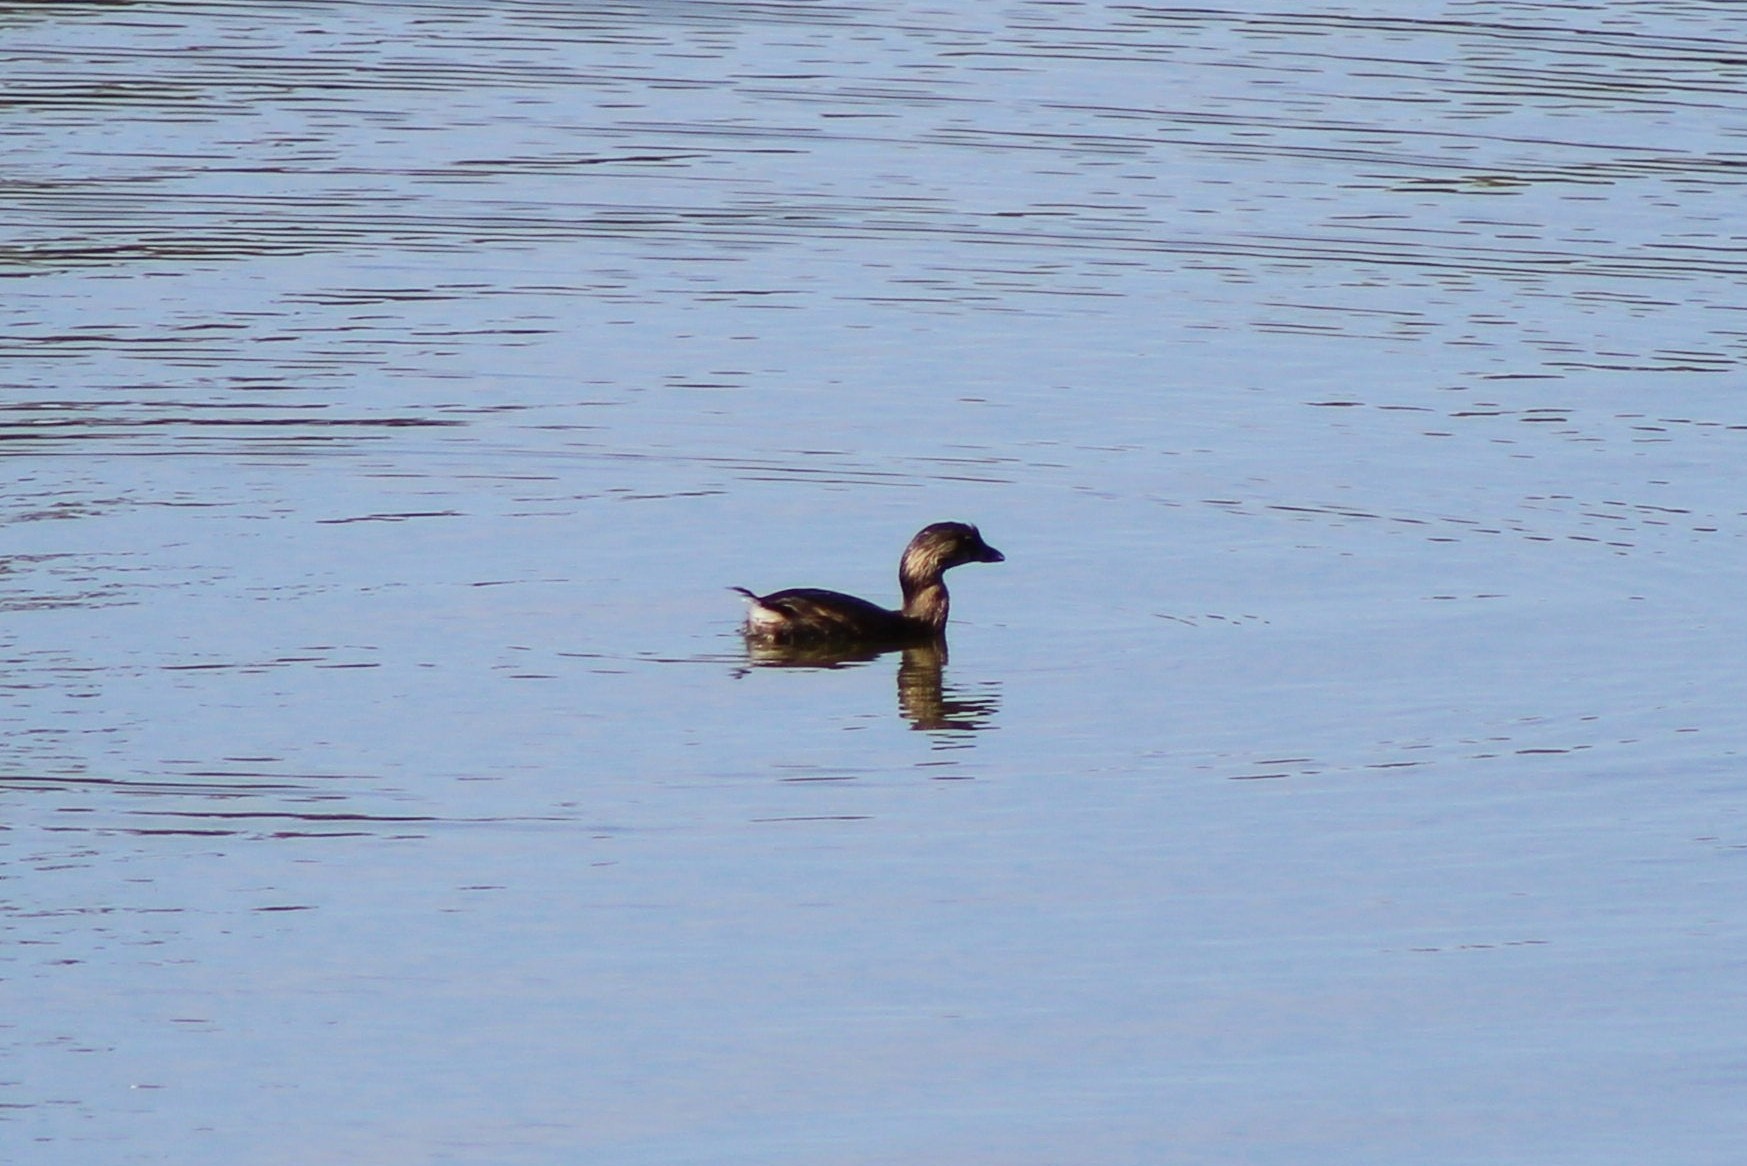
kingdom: Animalia
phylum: Chordata
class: Aves
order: Podicipediformes
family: Podicipedidae
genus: Podilymbus
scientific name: Podilymbus podiceps
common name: Pied-billed grebe
